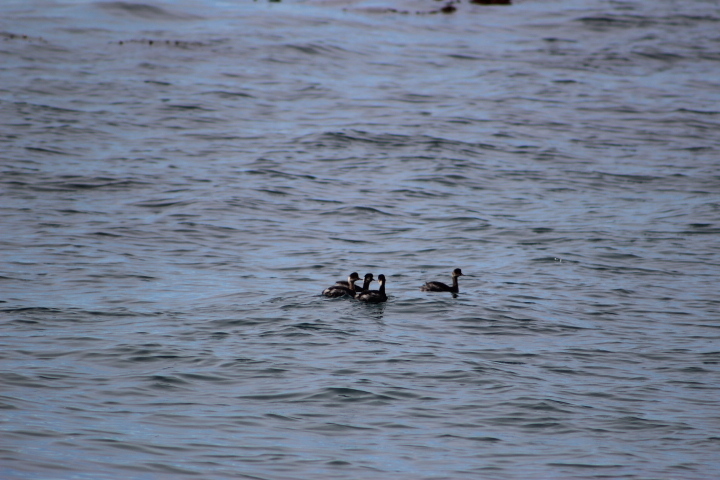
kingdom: Animalia
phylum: Chordata
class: Aves
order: Podicipediformes
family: Podicipedidae
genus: Podiceps
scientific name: Podiceps nigricollis
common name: Black-necked grebe
